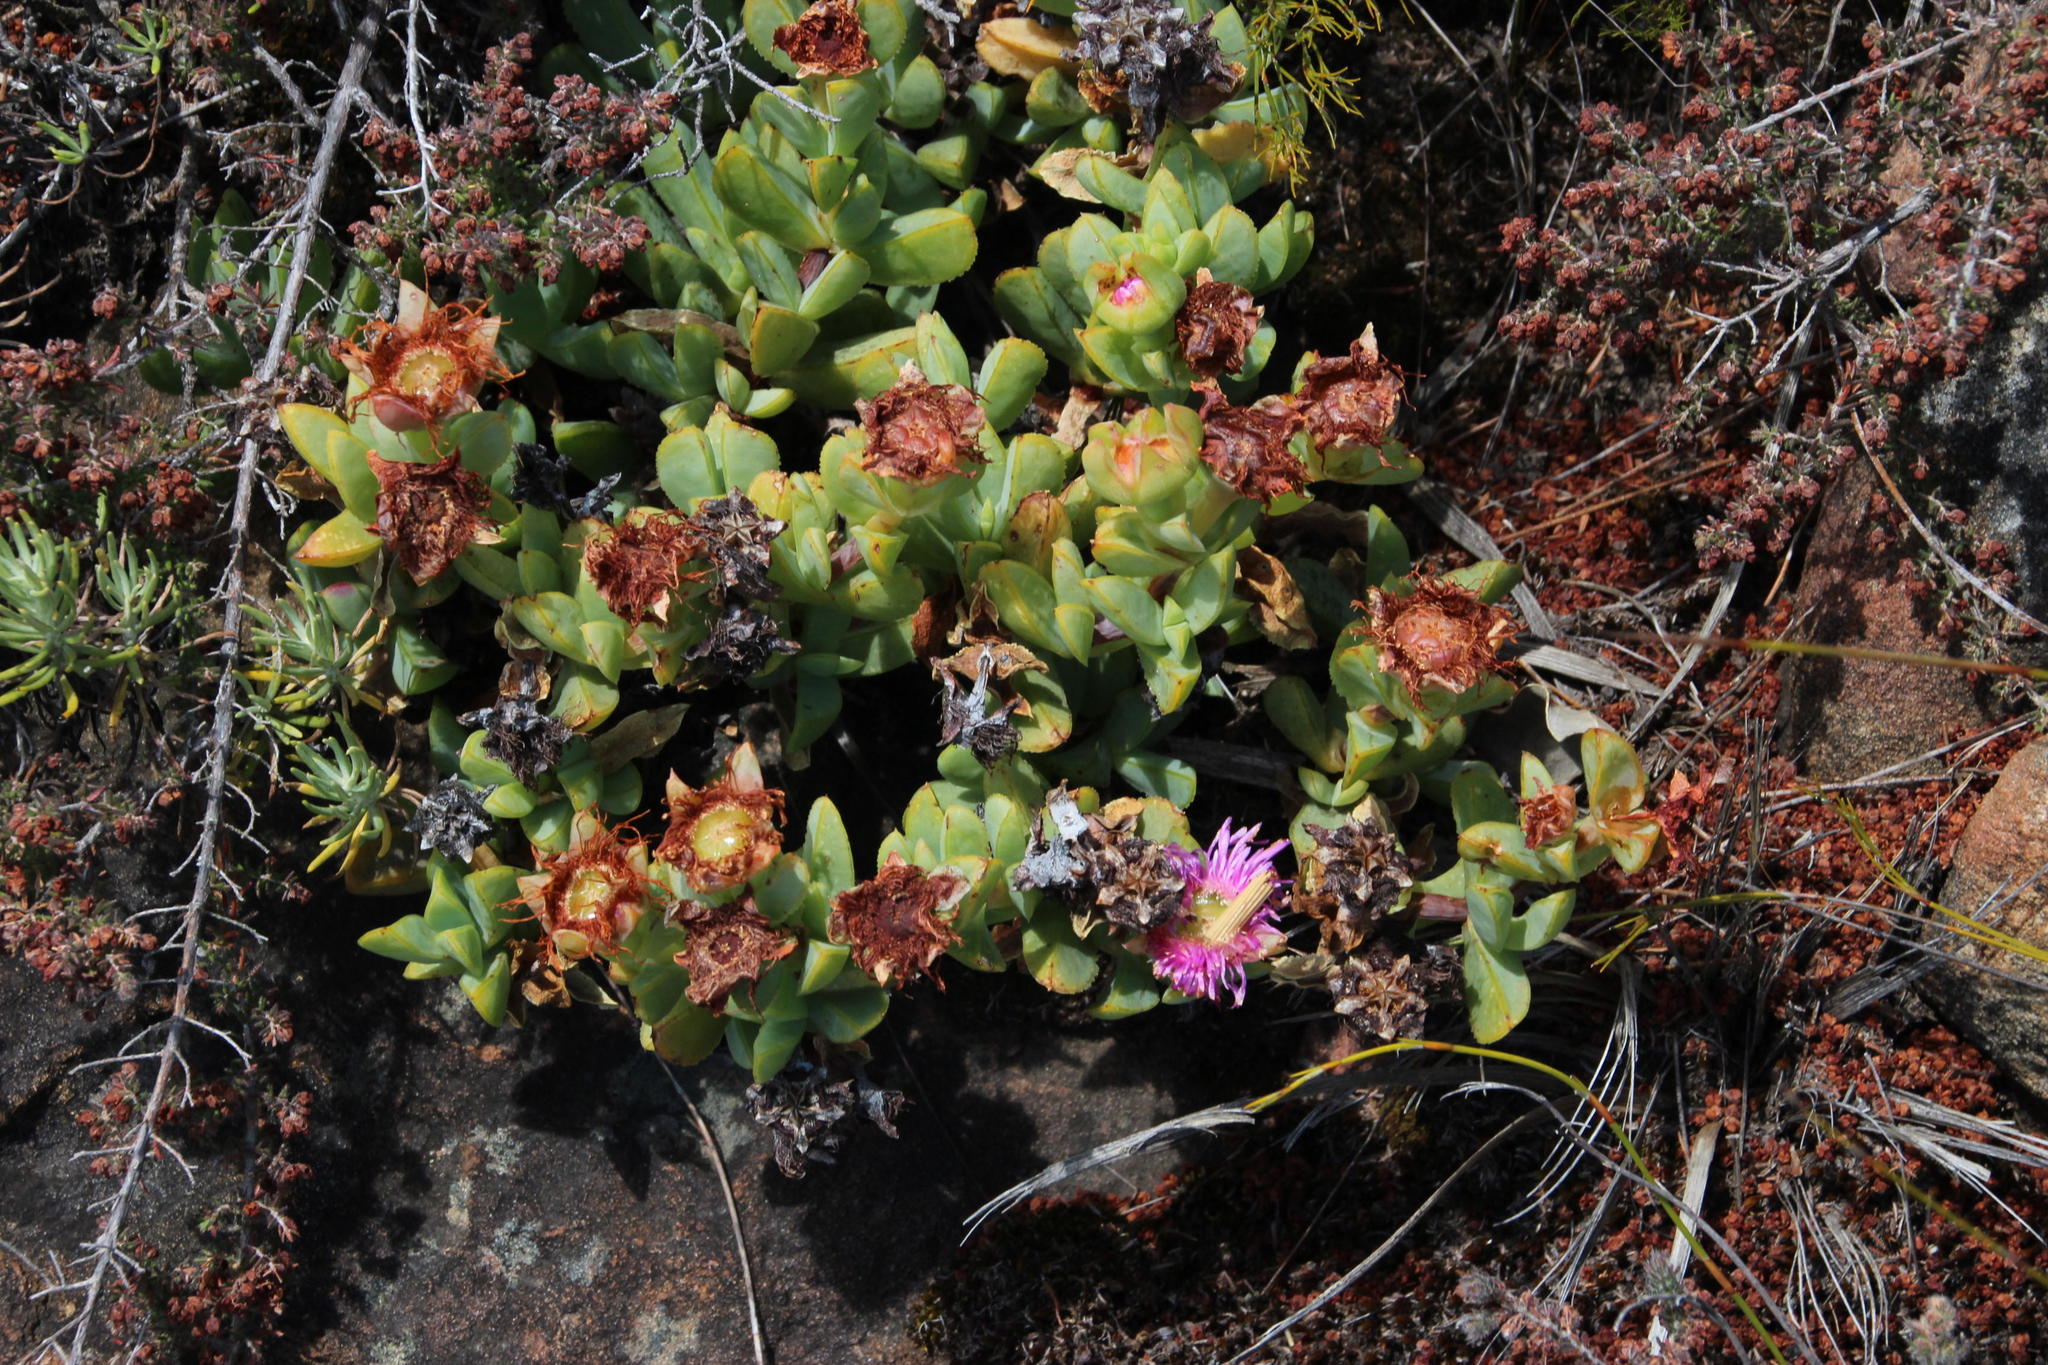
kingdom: Plantae
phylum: Tracheophyta
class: Magnoliopsida
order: Caryophyllales
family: Aizoaceae
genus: Erepsia
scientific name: Erepsia heteropetala
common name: Lesser sea-fig
